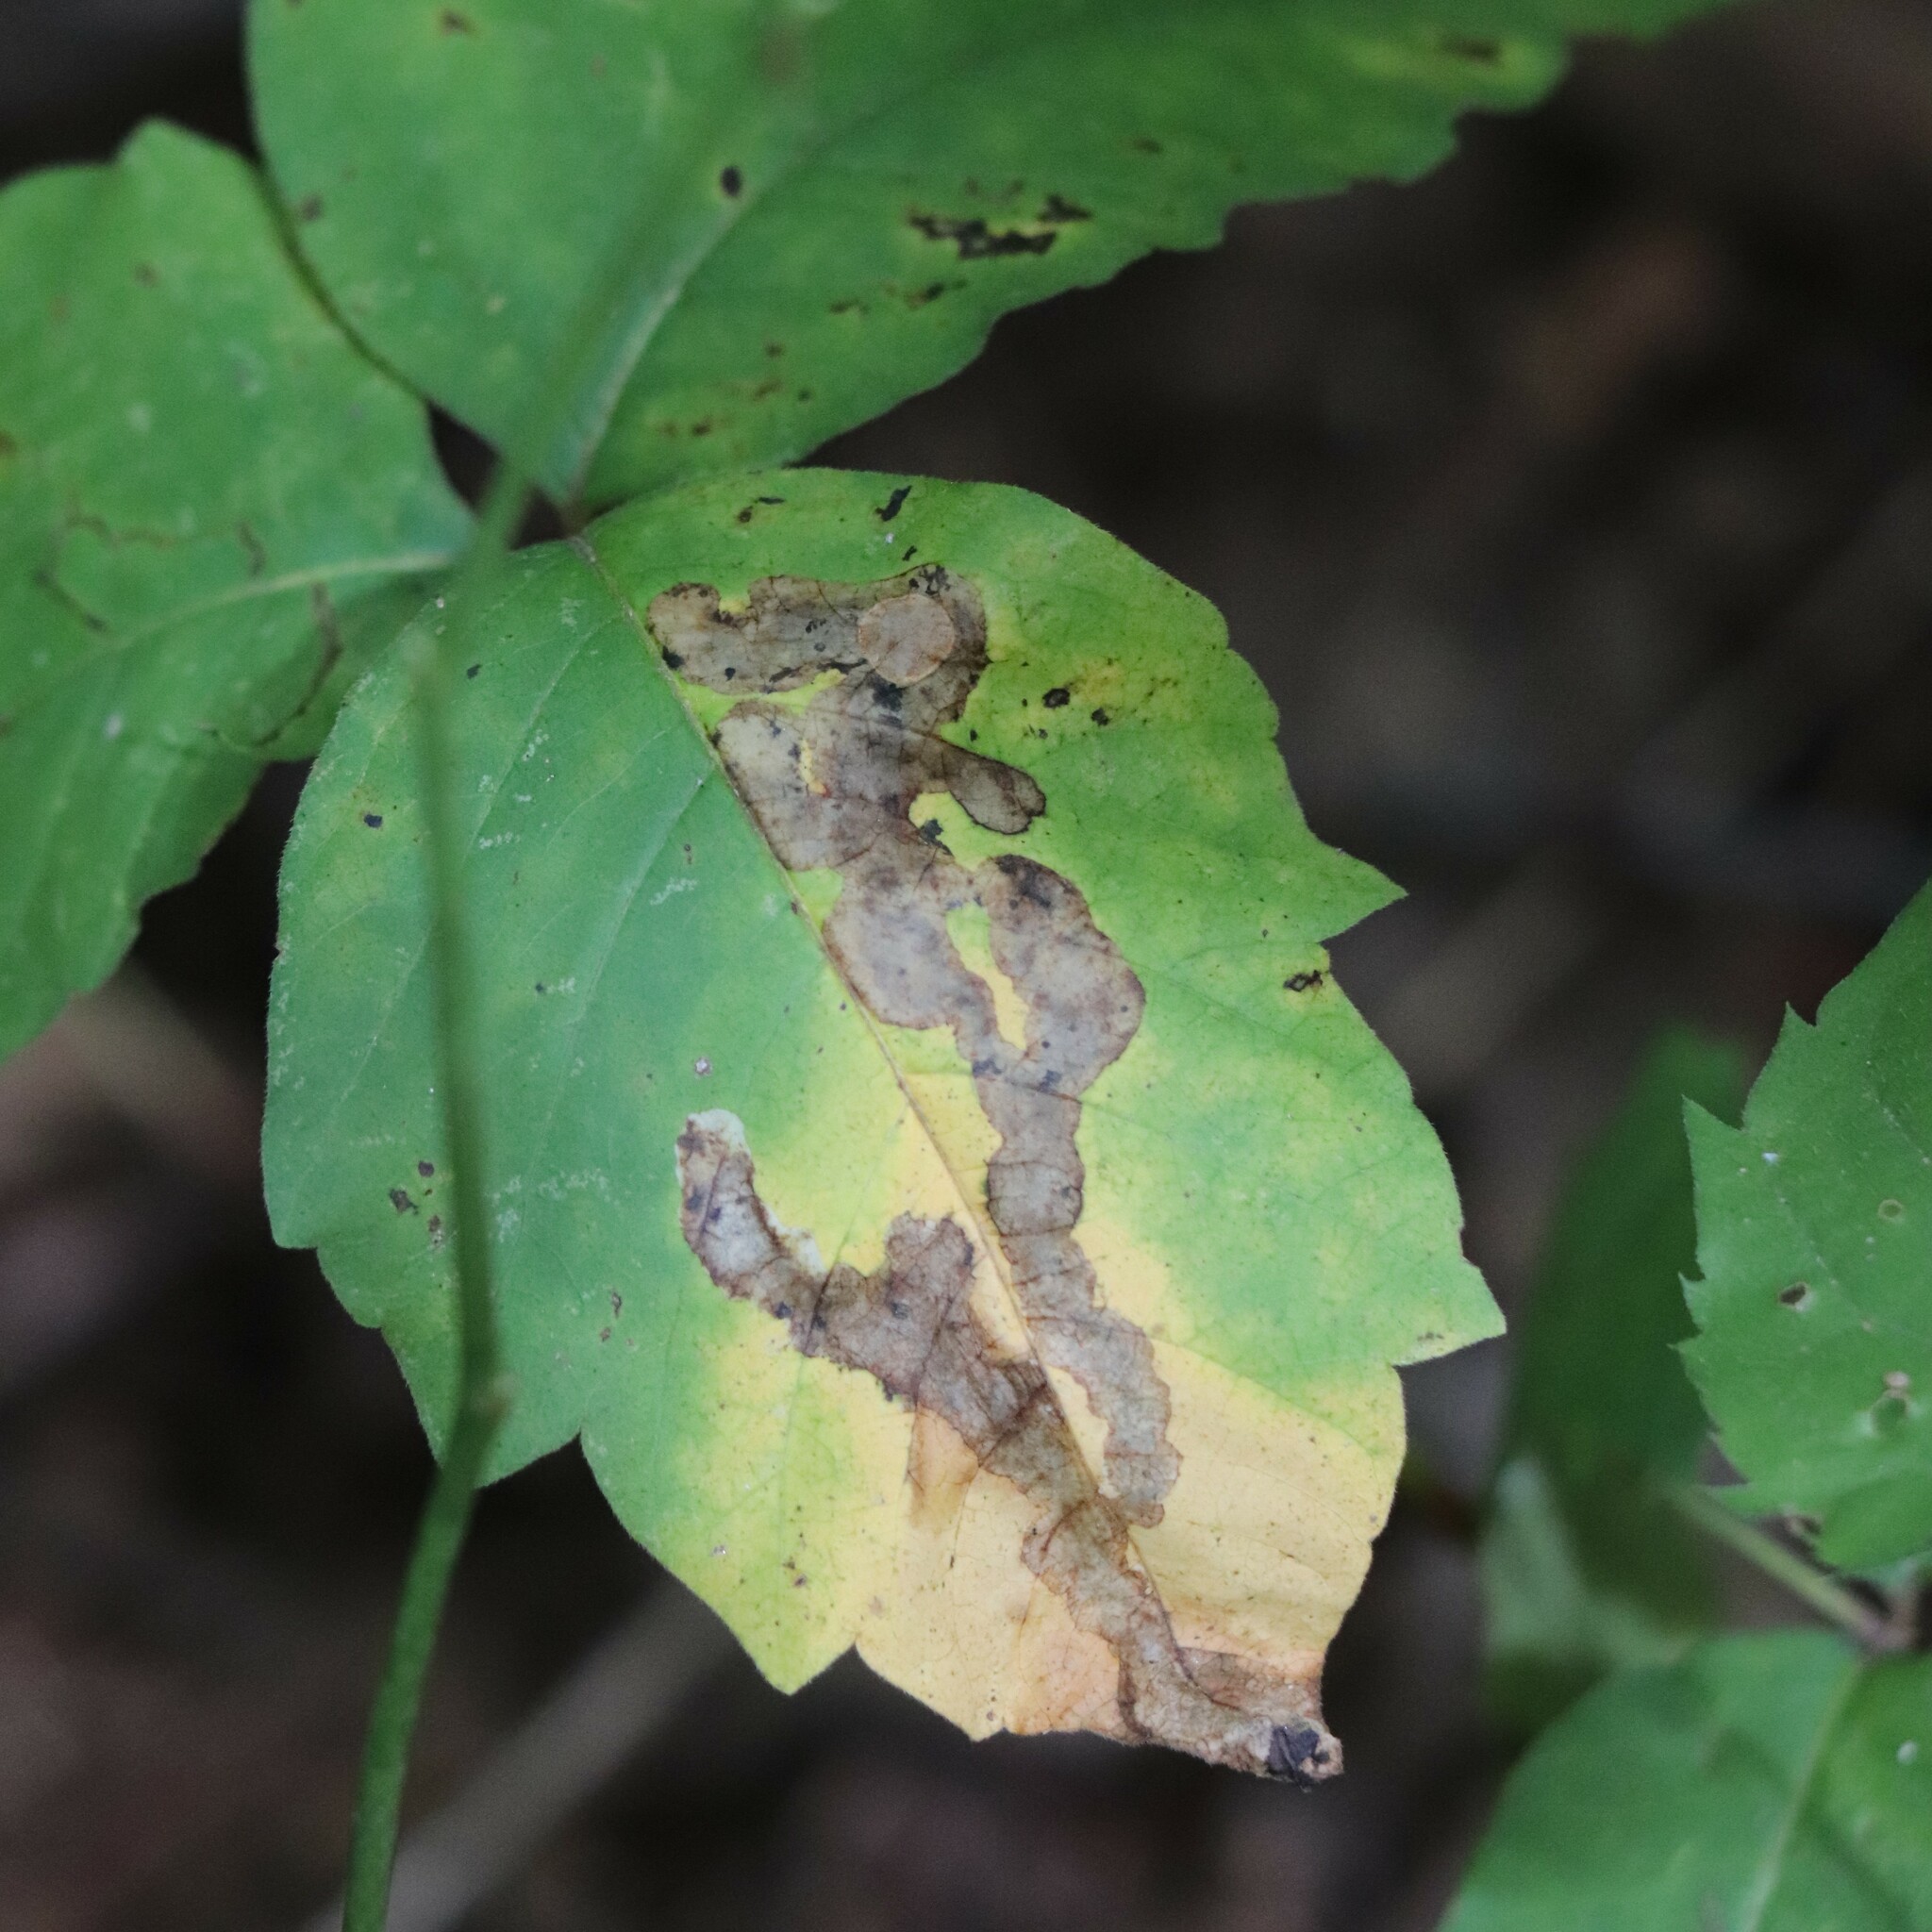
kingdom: Animalia
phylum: Arthropoda
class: Insecta
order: Lepidoptera
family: Gracillariidae
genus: Cameraria
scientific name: Cameraria guttifinitella
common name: Poison ivy leaf-miner moth
